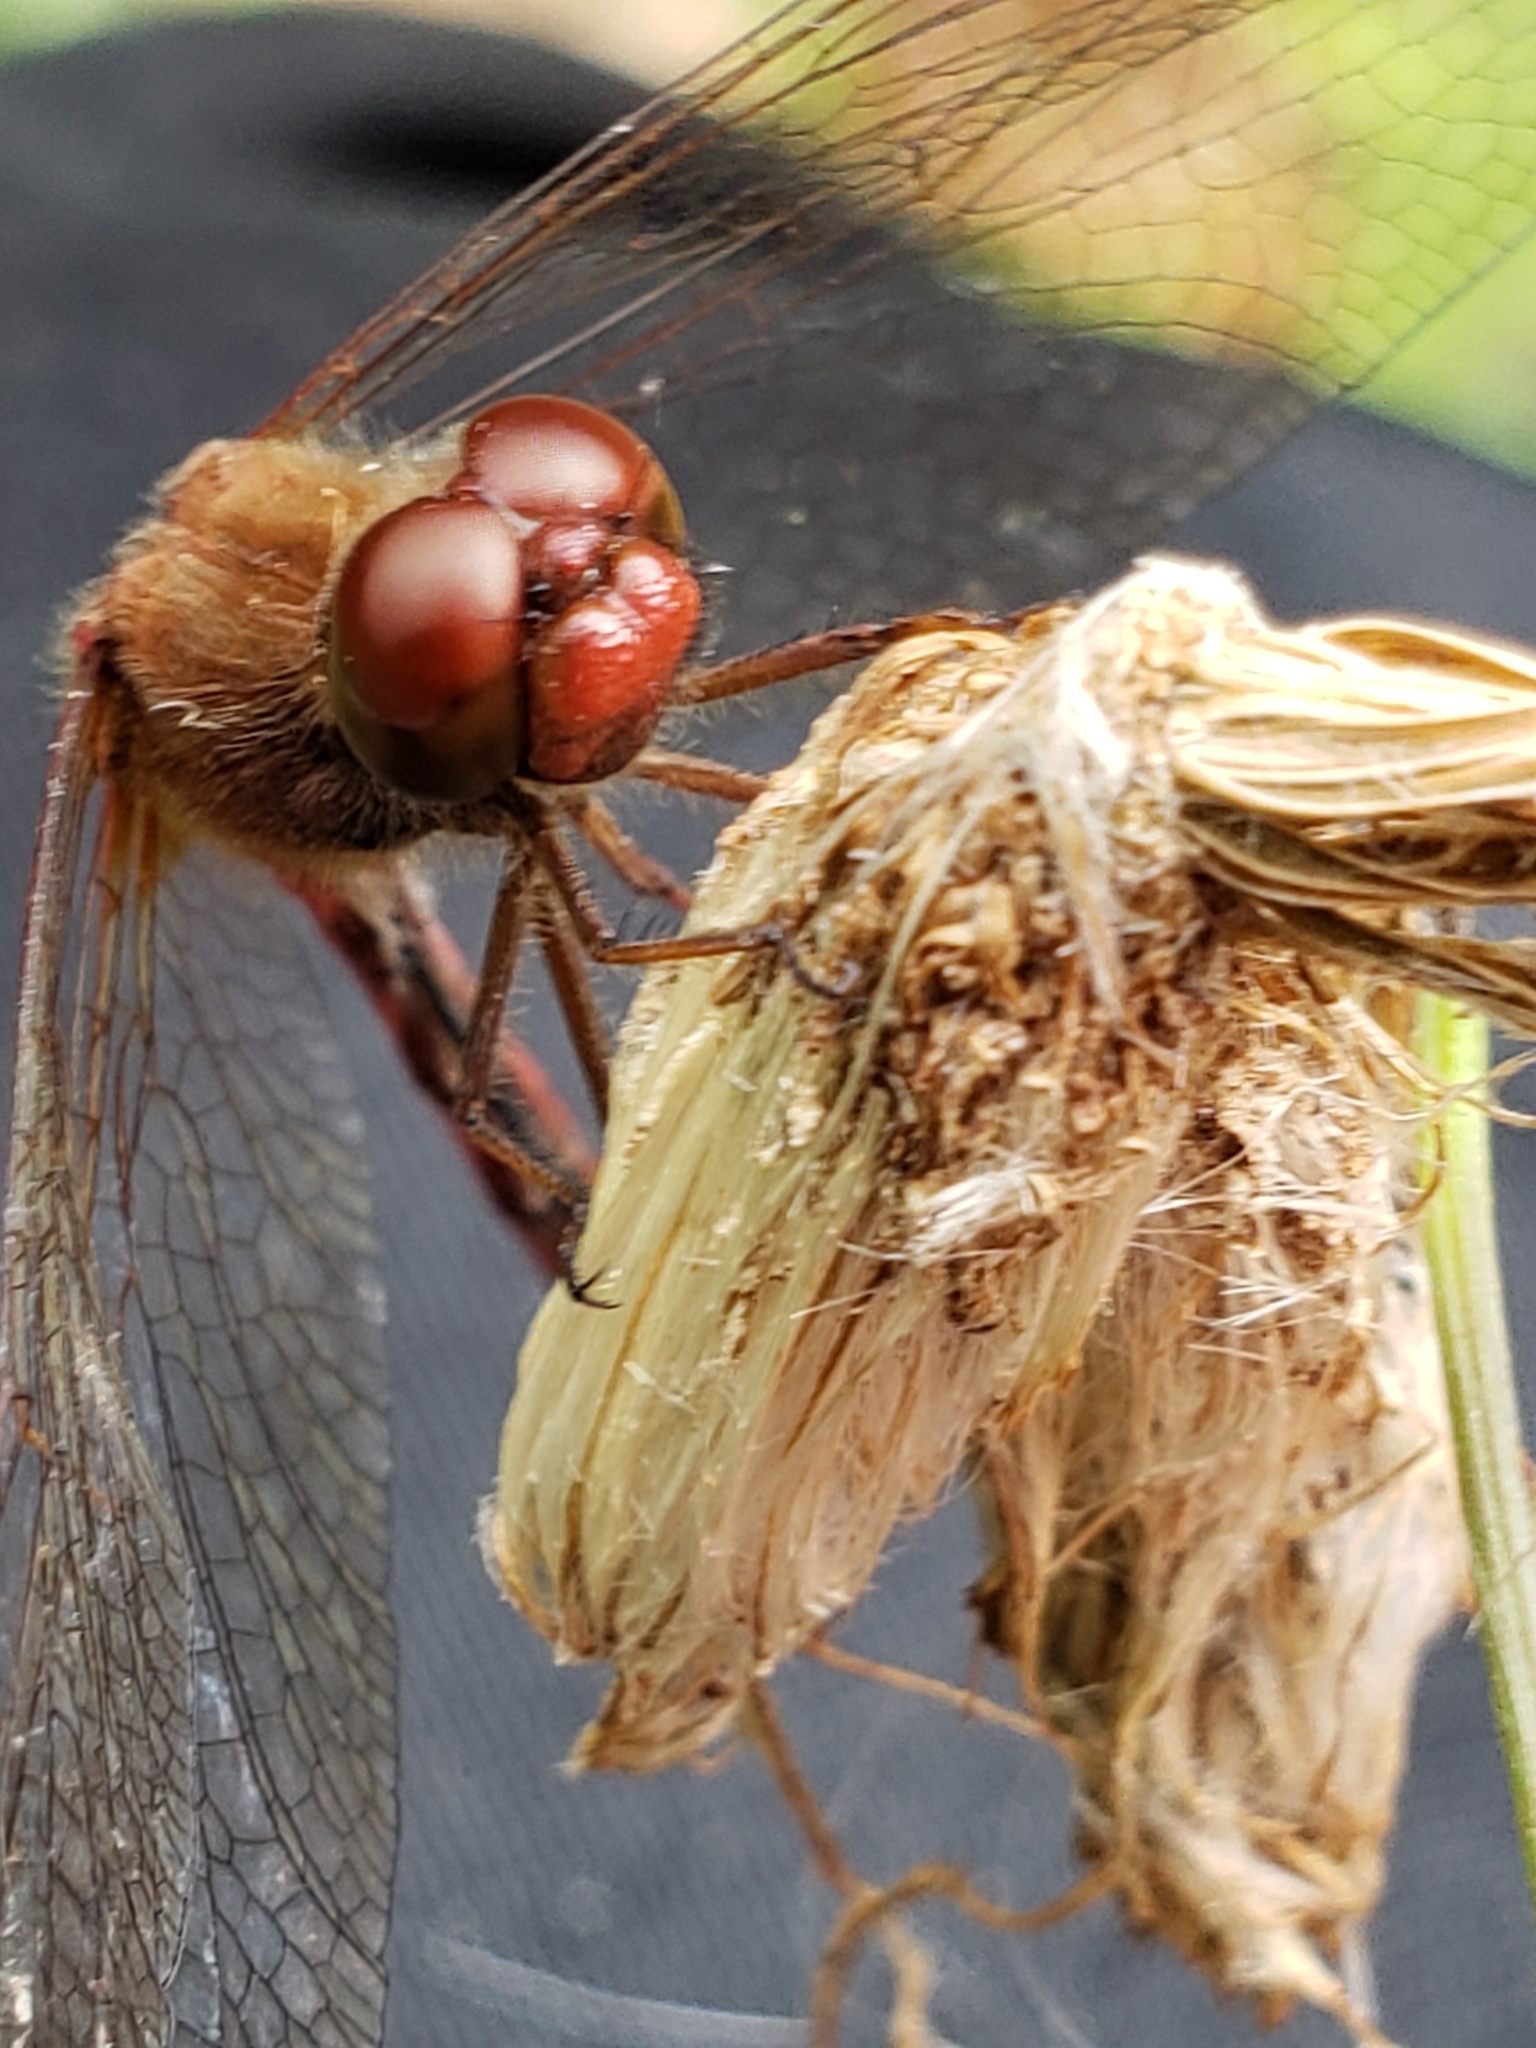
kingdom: Animalia
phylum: Arthropoda
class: Insecta
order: Odonata
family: Libellulidae
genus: Sympetrum
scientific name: Sympetrum vicinum
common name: Autumn meadowhawk
